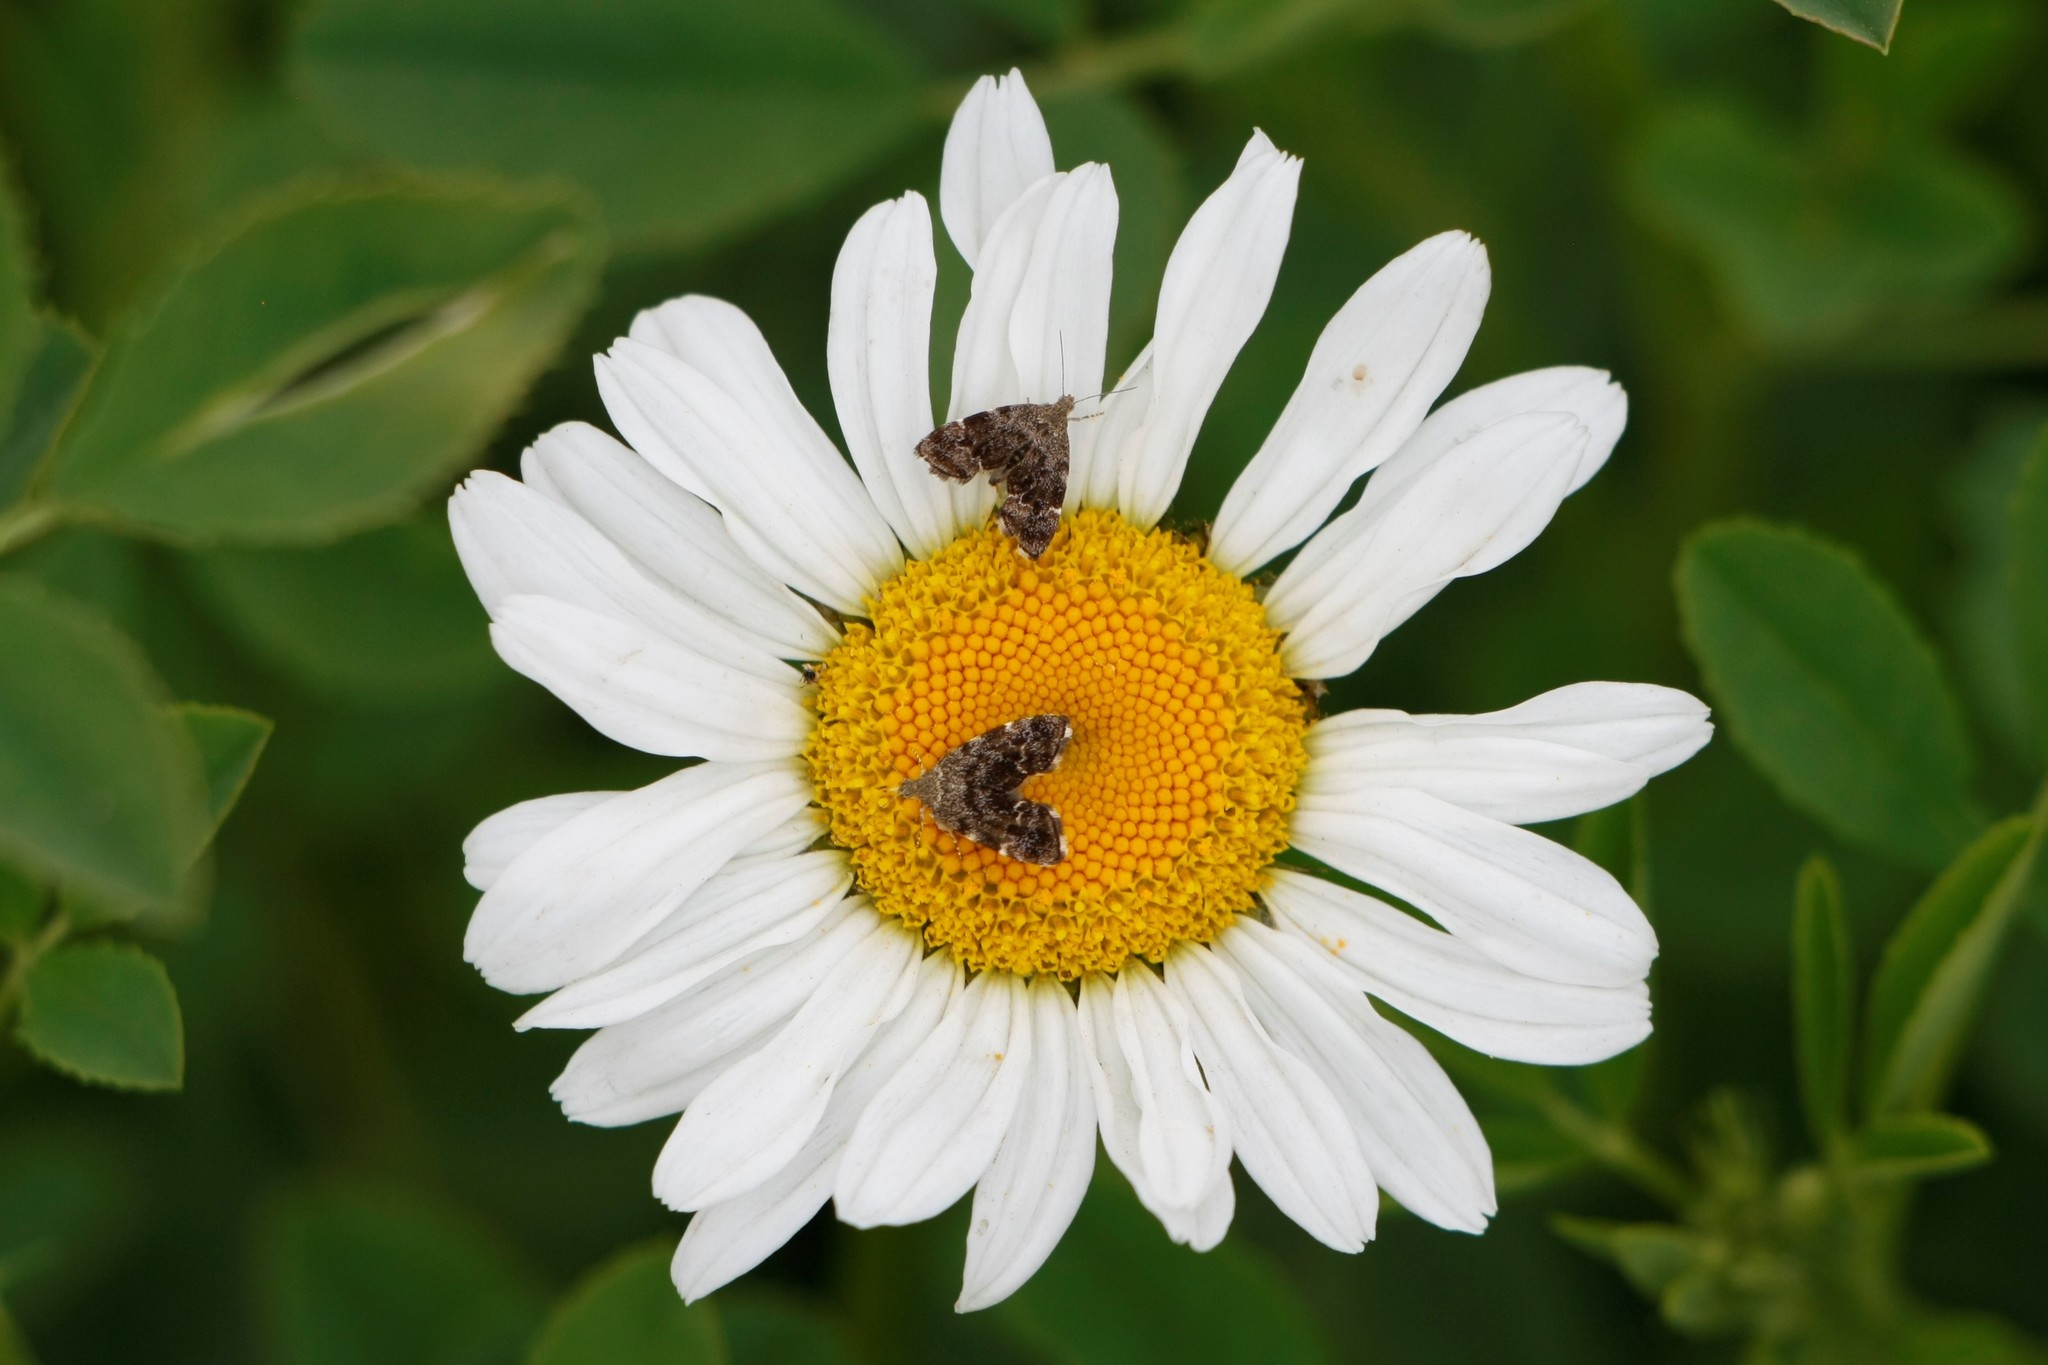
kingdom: Animalia
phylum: Arthropoda
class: Insecta
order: Lepidoptera
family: Choreutidae
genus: Anthophila
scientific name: Anthophila fabriciana
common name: Nettle-tap
